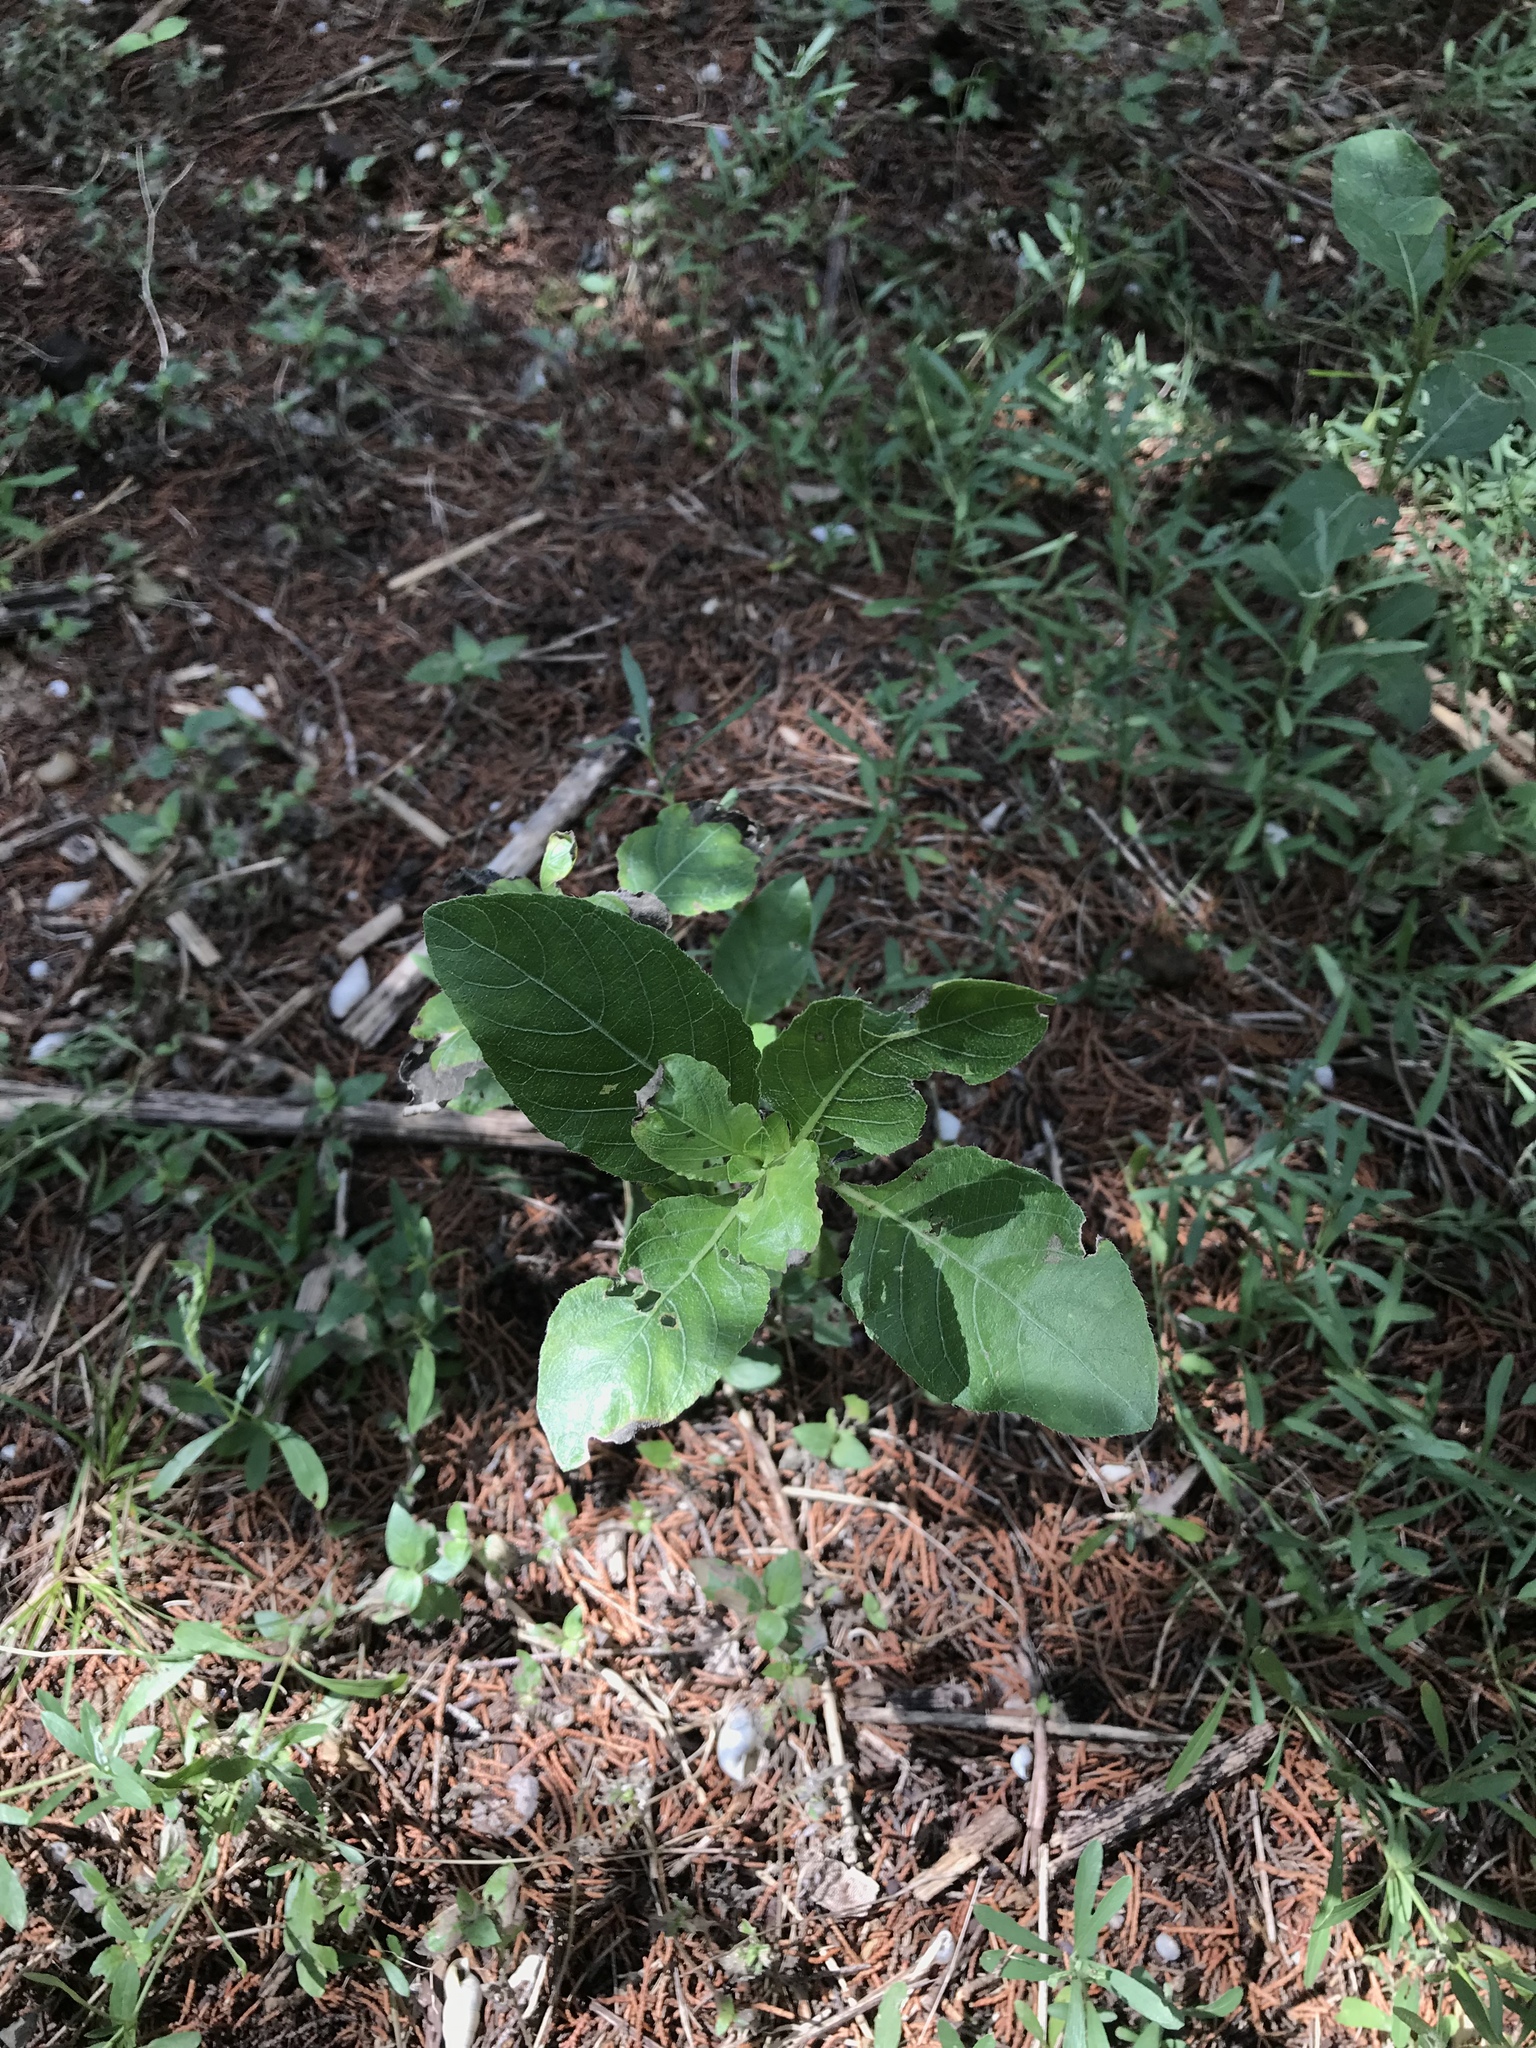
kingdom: Plantae
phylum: Tracheophyta
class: Magnoliopsida
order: Lamiales
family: Acanthaceae
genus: Ruellia
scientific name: Ruellia ciliatiflora
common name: Hairyflower wild petunia
